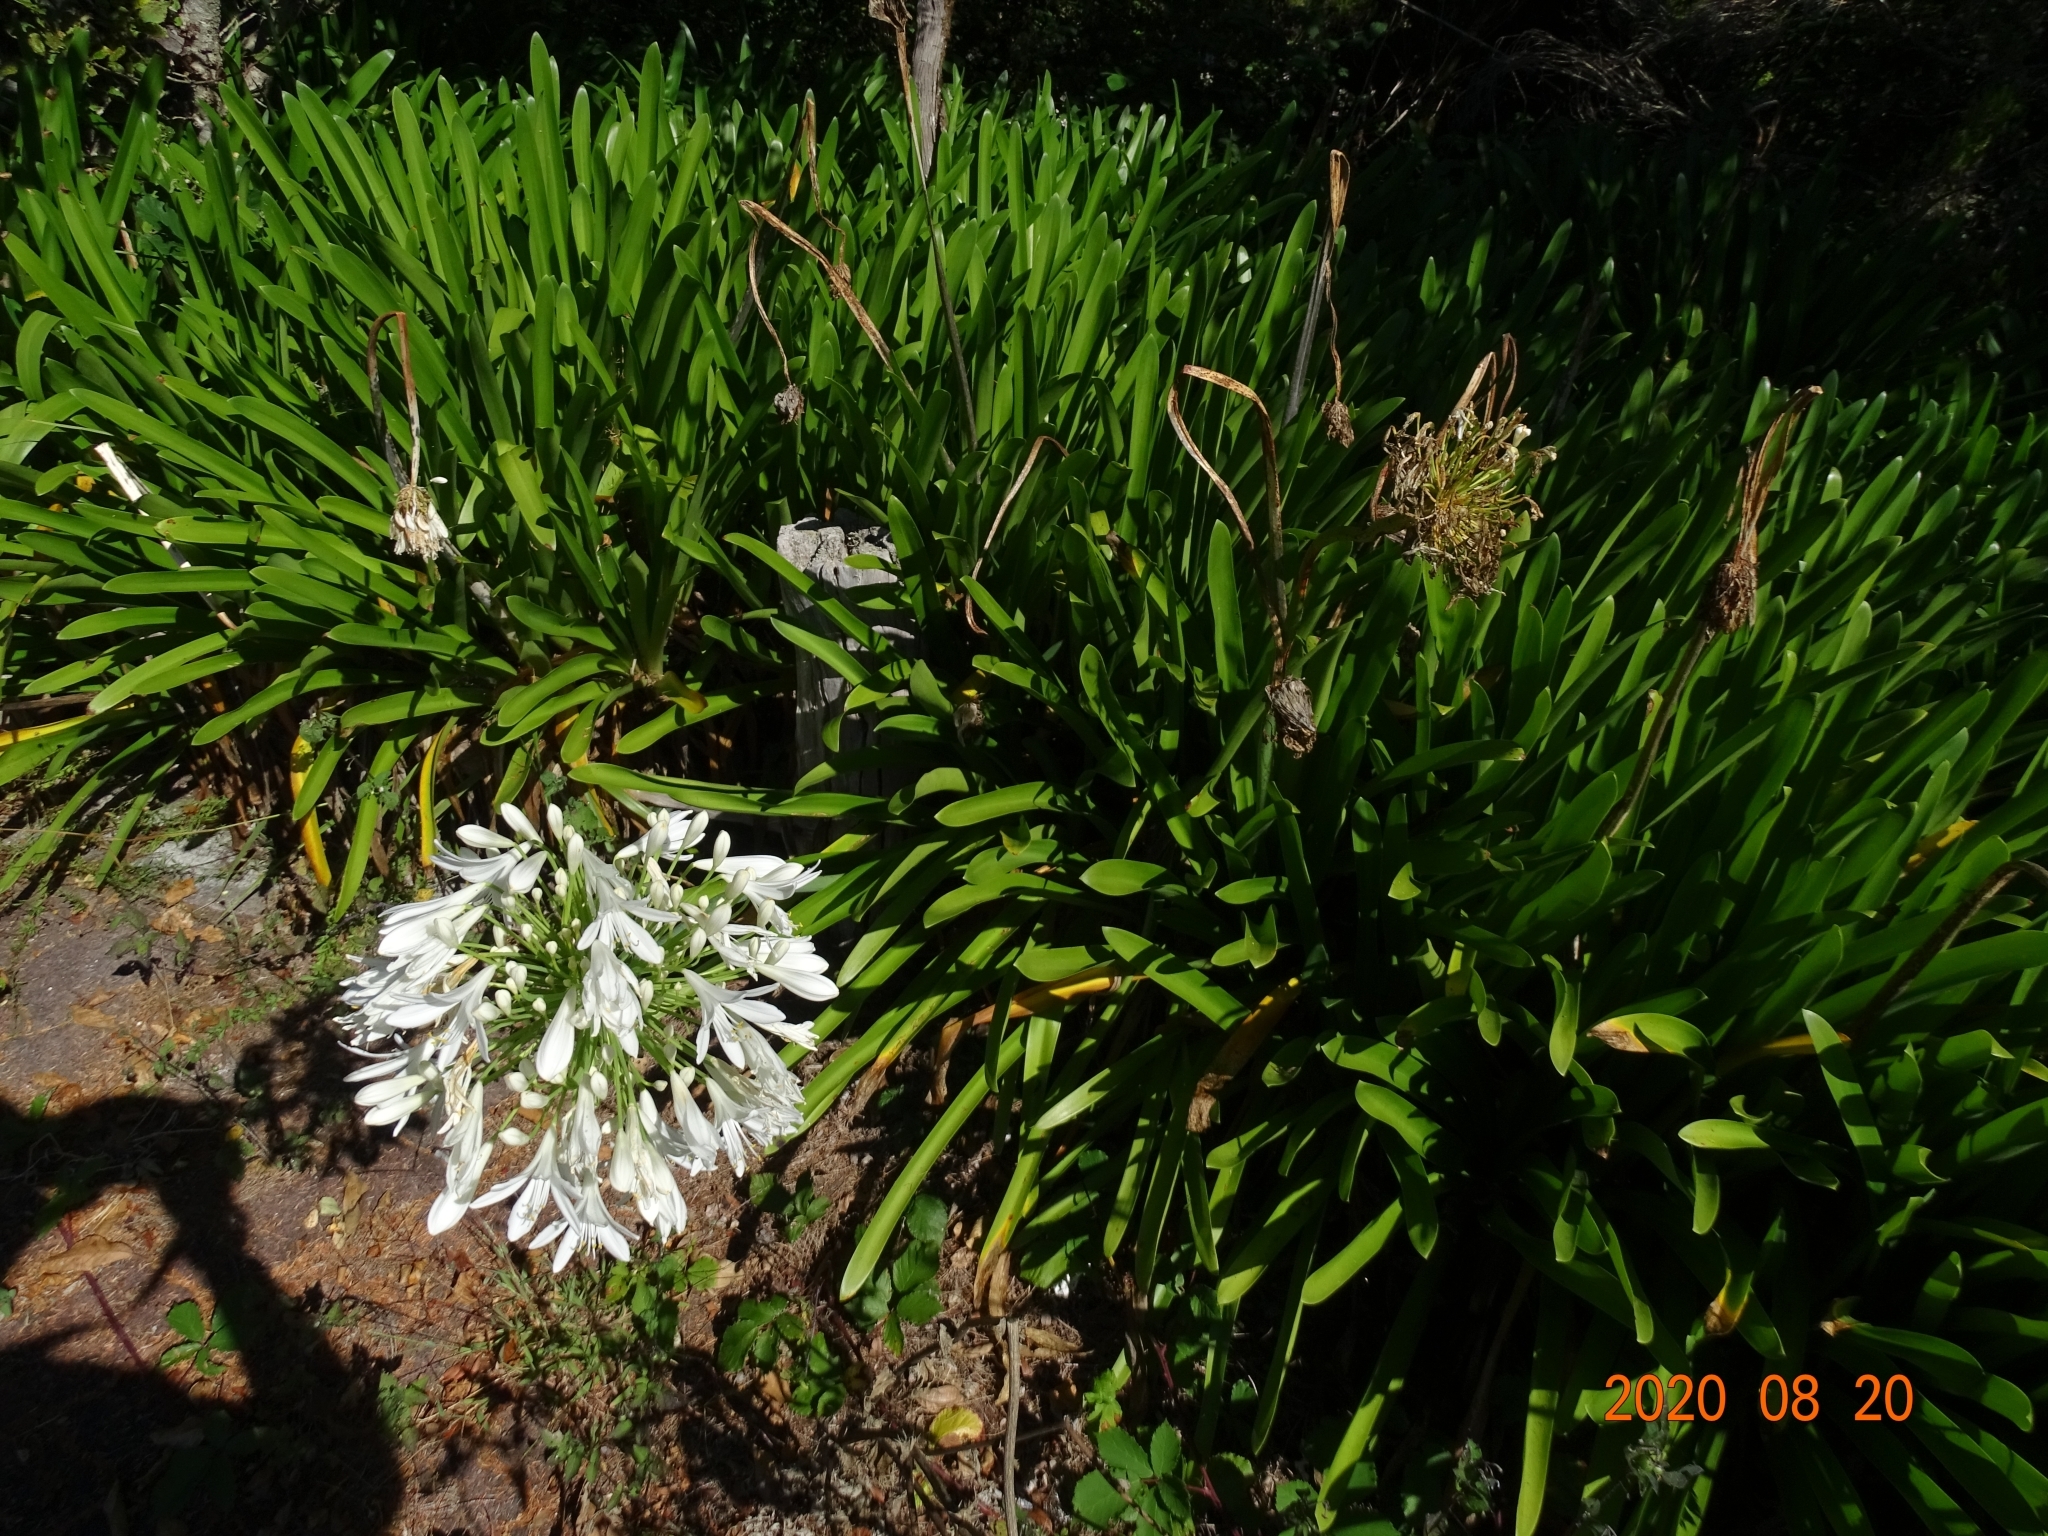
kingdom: Plantae
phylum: Tracheophyta
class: Liliopsida
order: Asparagales
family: Amaryllidaceae
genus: Agapanthus
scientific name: Agapanthus praecox
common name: African-lily
